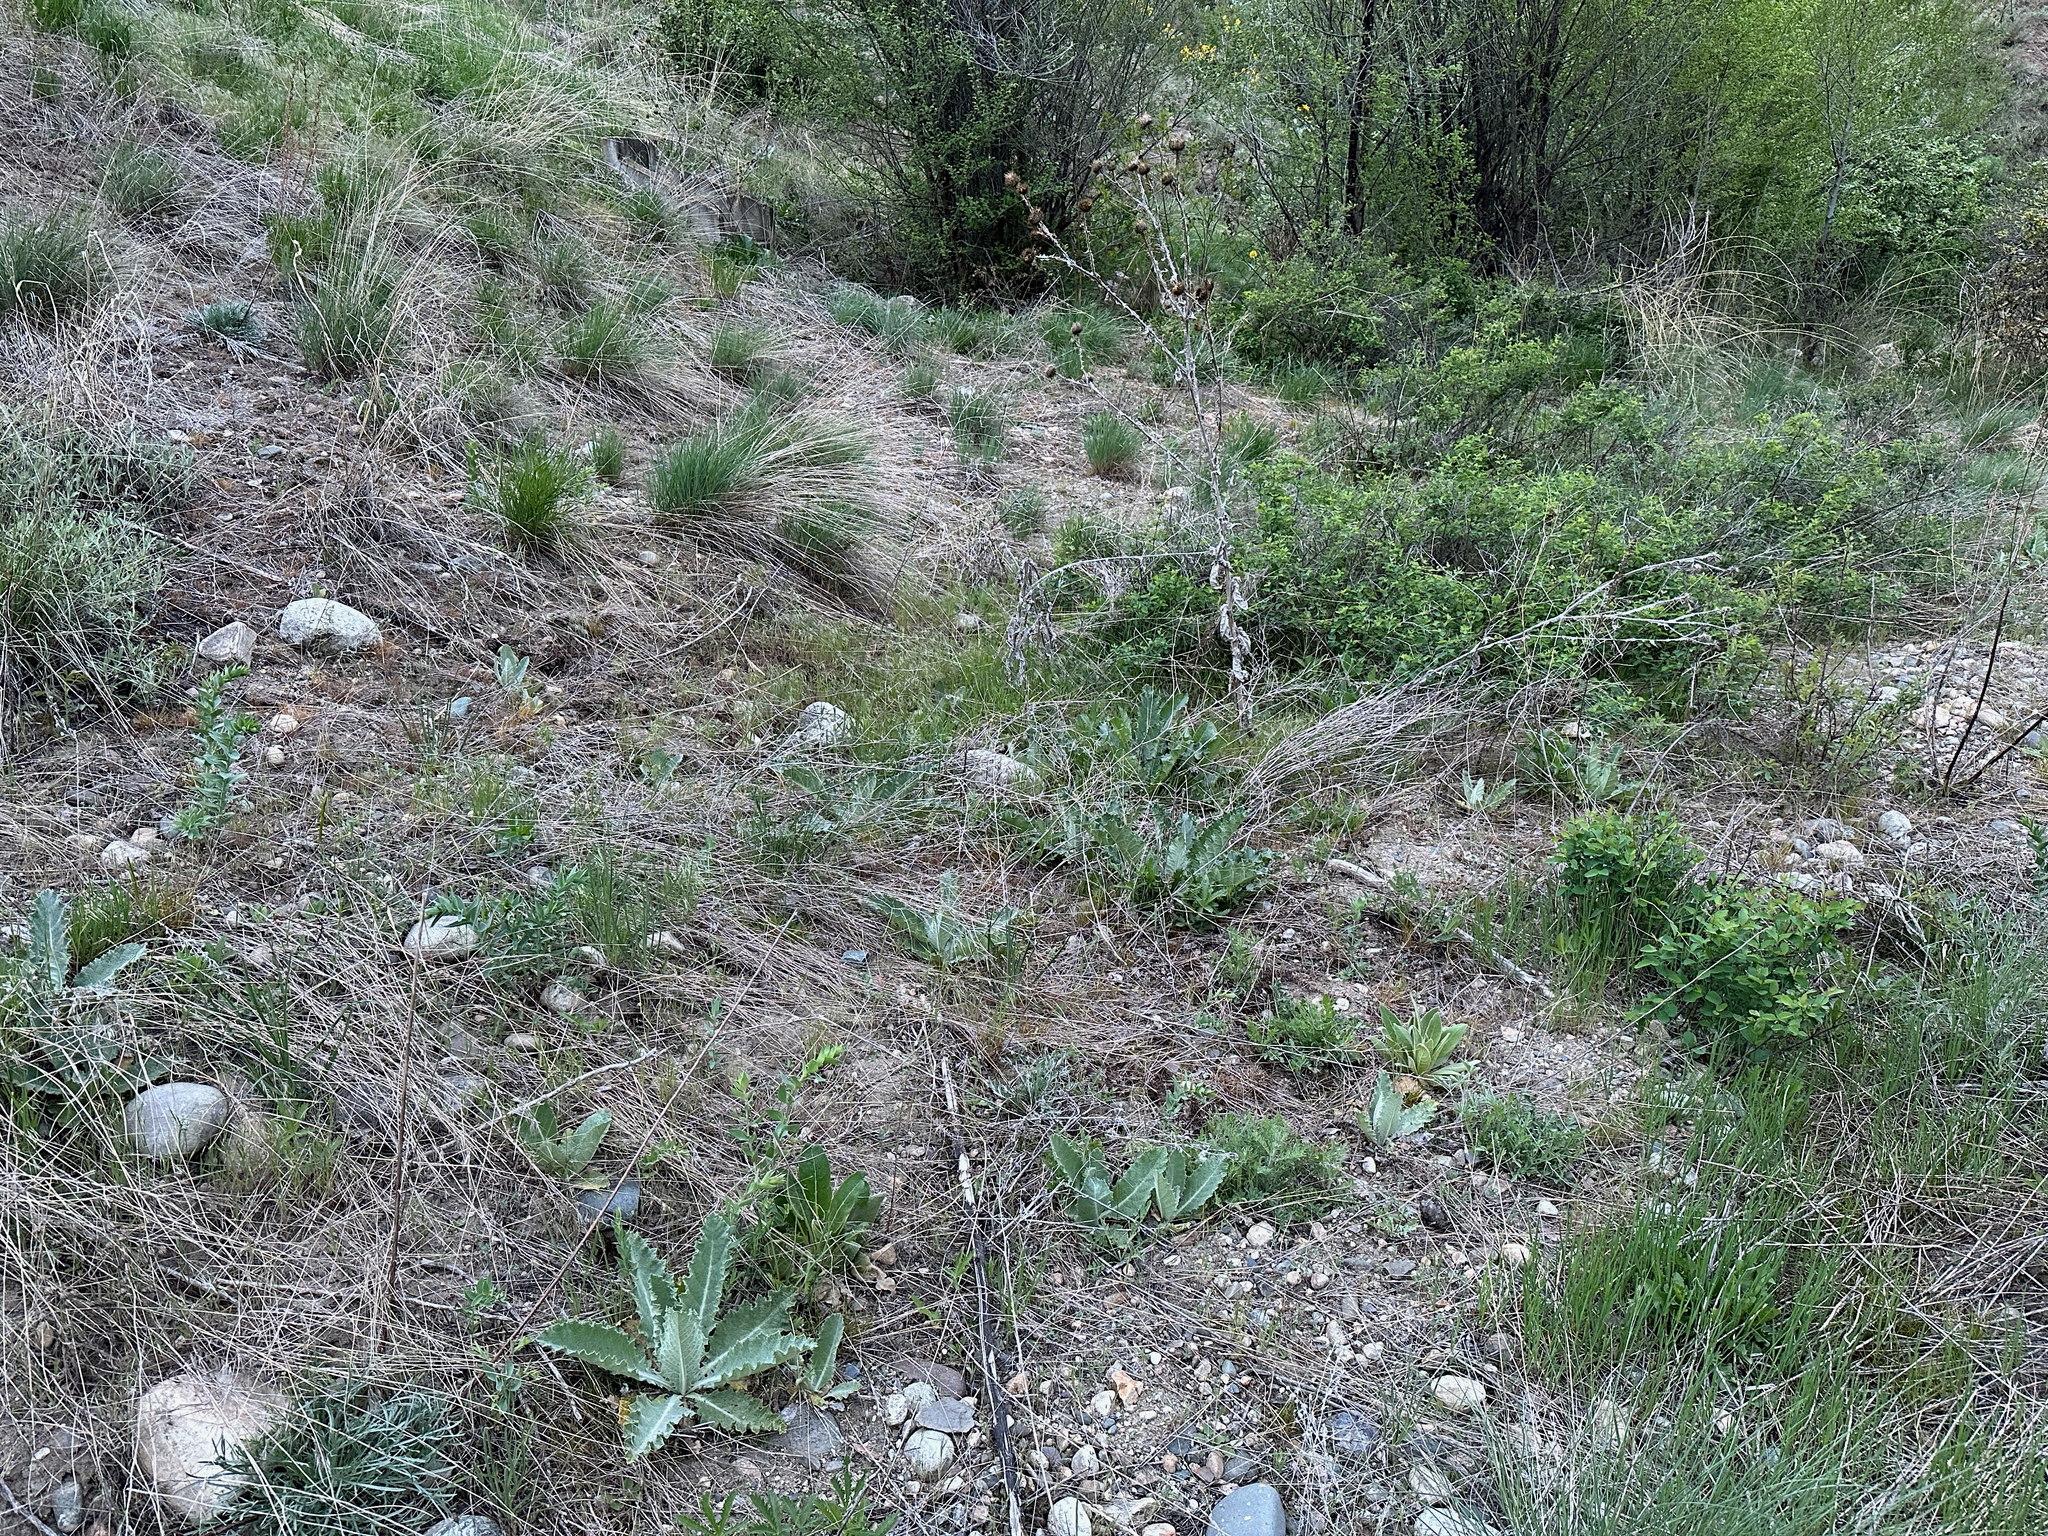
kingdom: Plantae
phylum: Tracheophyta
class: Magnoliopsida
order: Asterales
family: Asteraceae
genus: Onopordum
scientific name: Onopordum acanthium
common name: Scotch thistle
